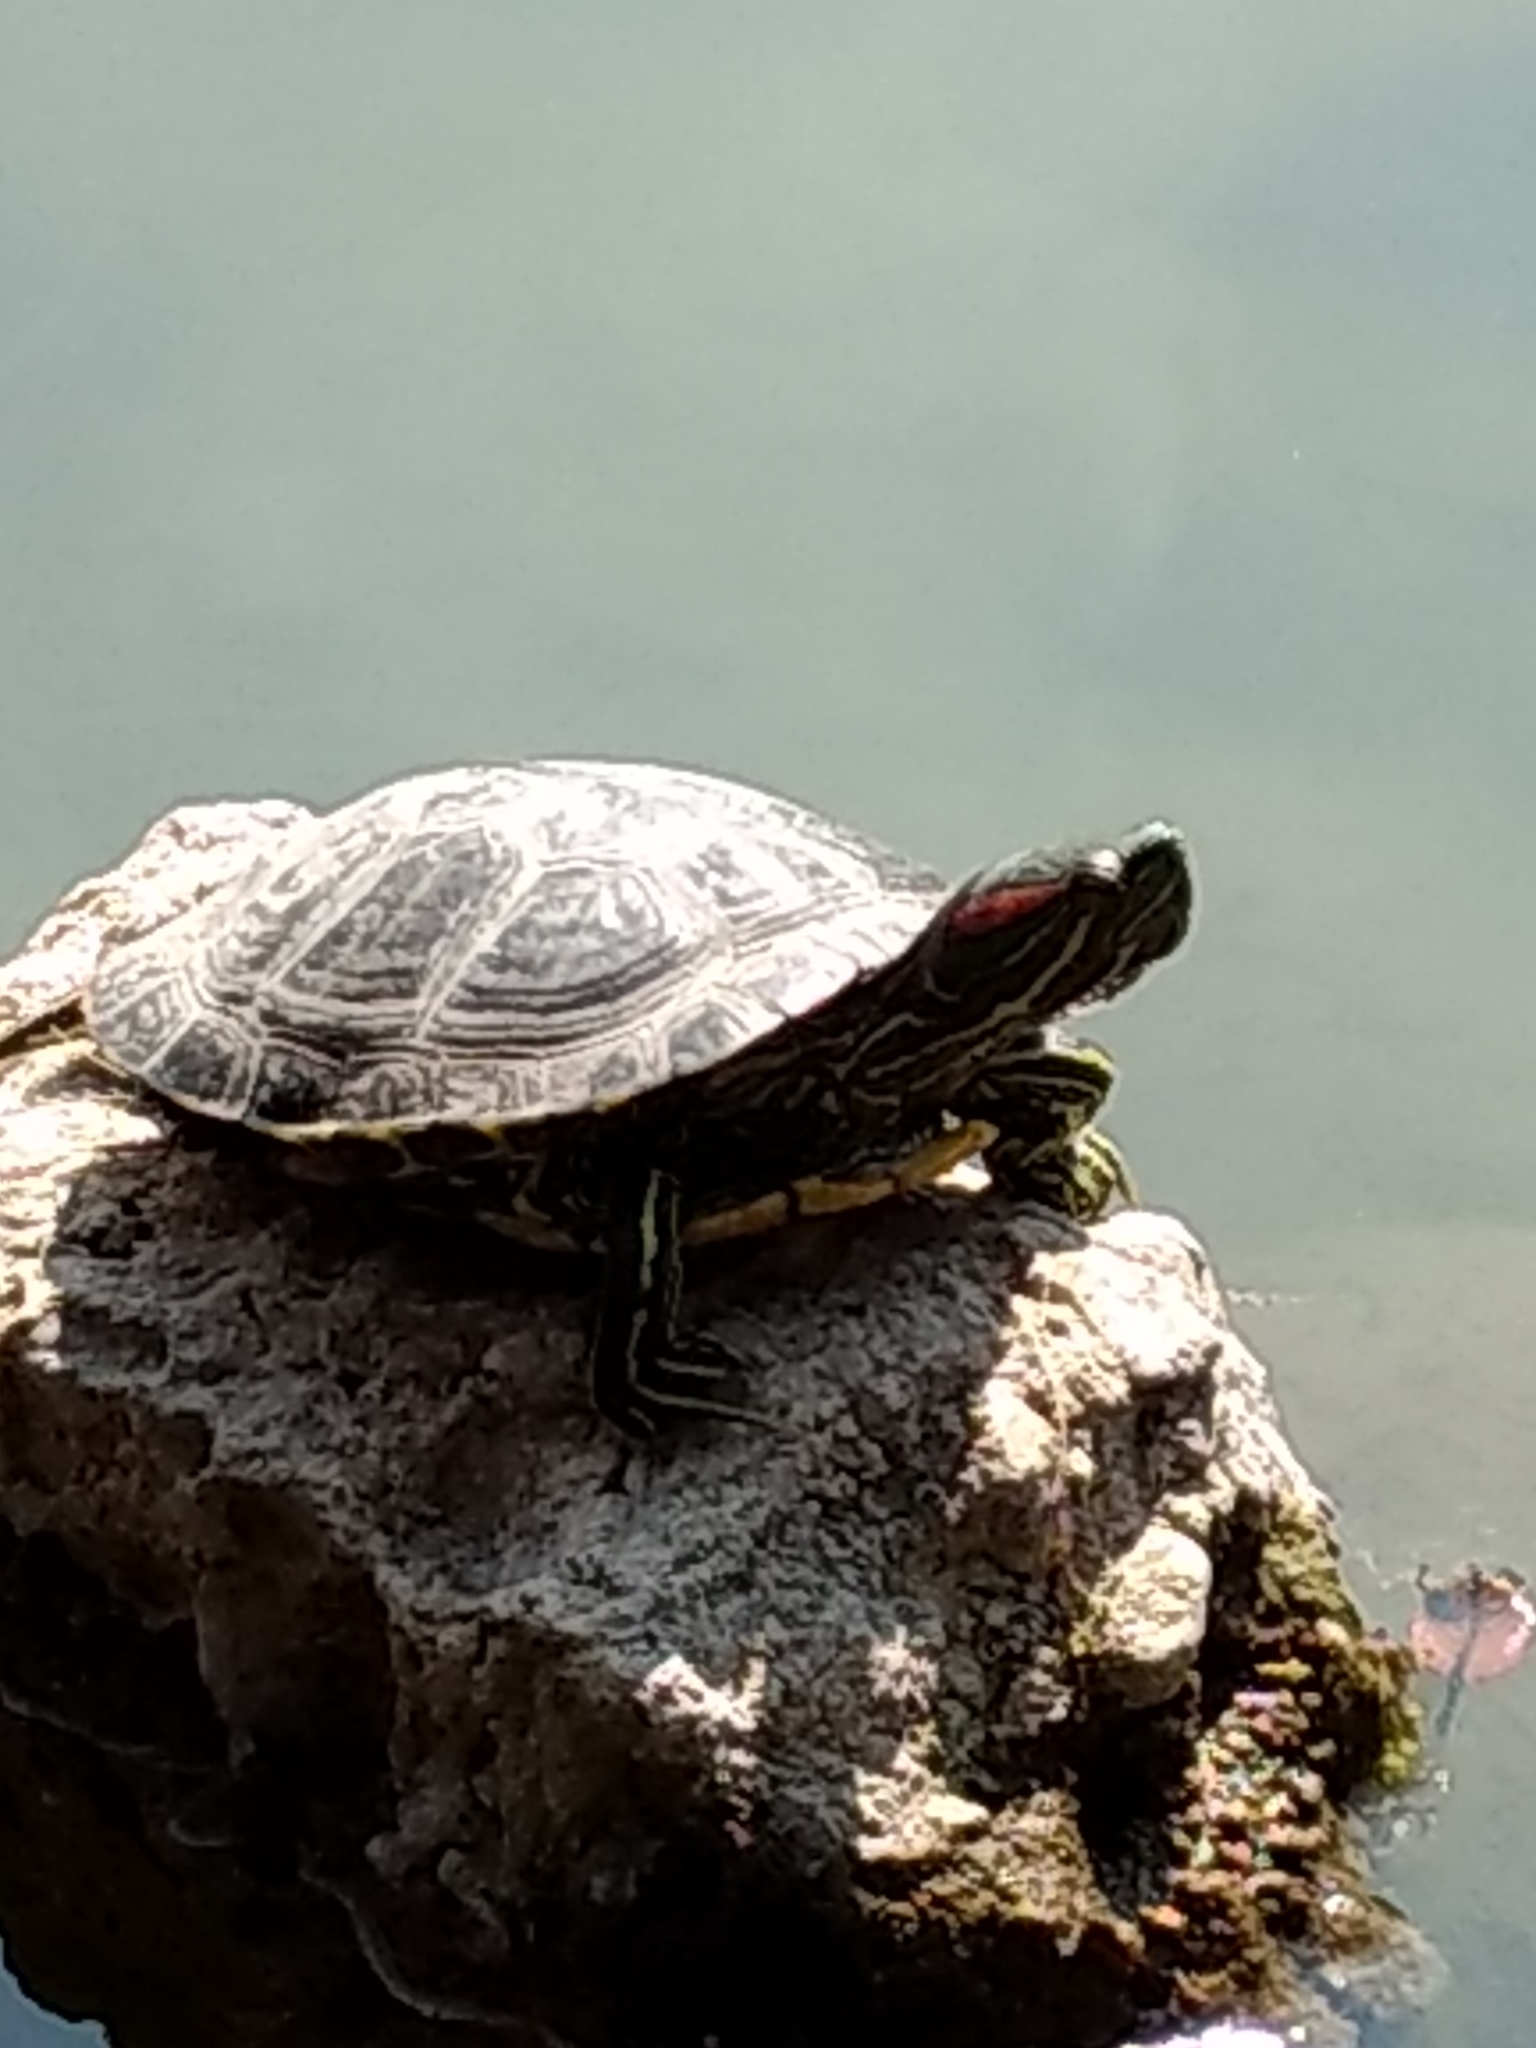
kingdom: Animalia
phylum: Chordata
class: Testudines
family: Emydidae
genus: Trachemys
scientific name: Trachemys scripta
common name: Slider
